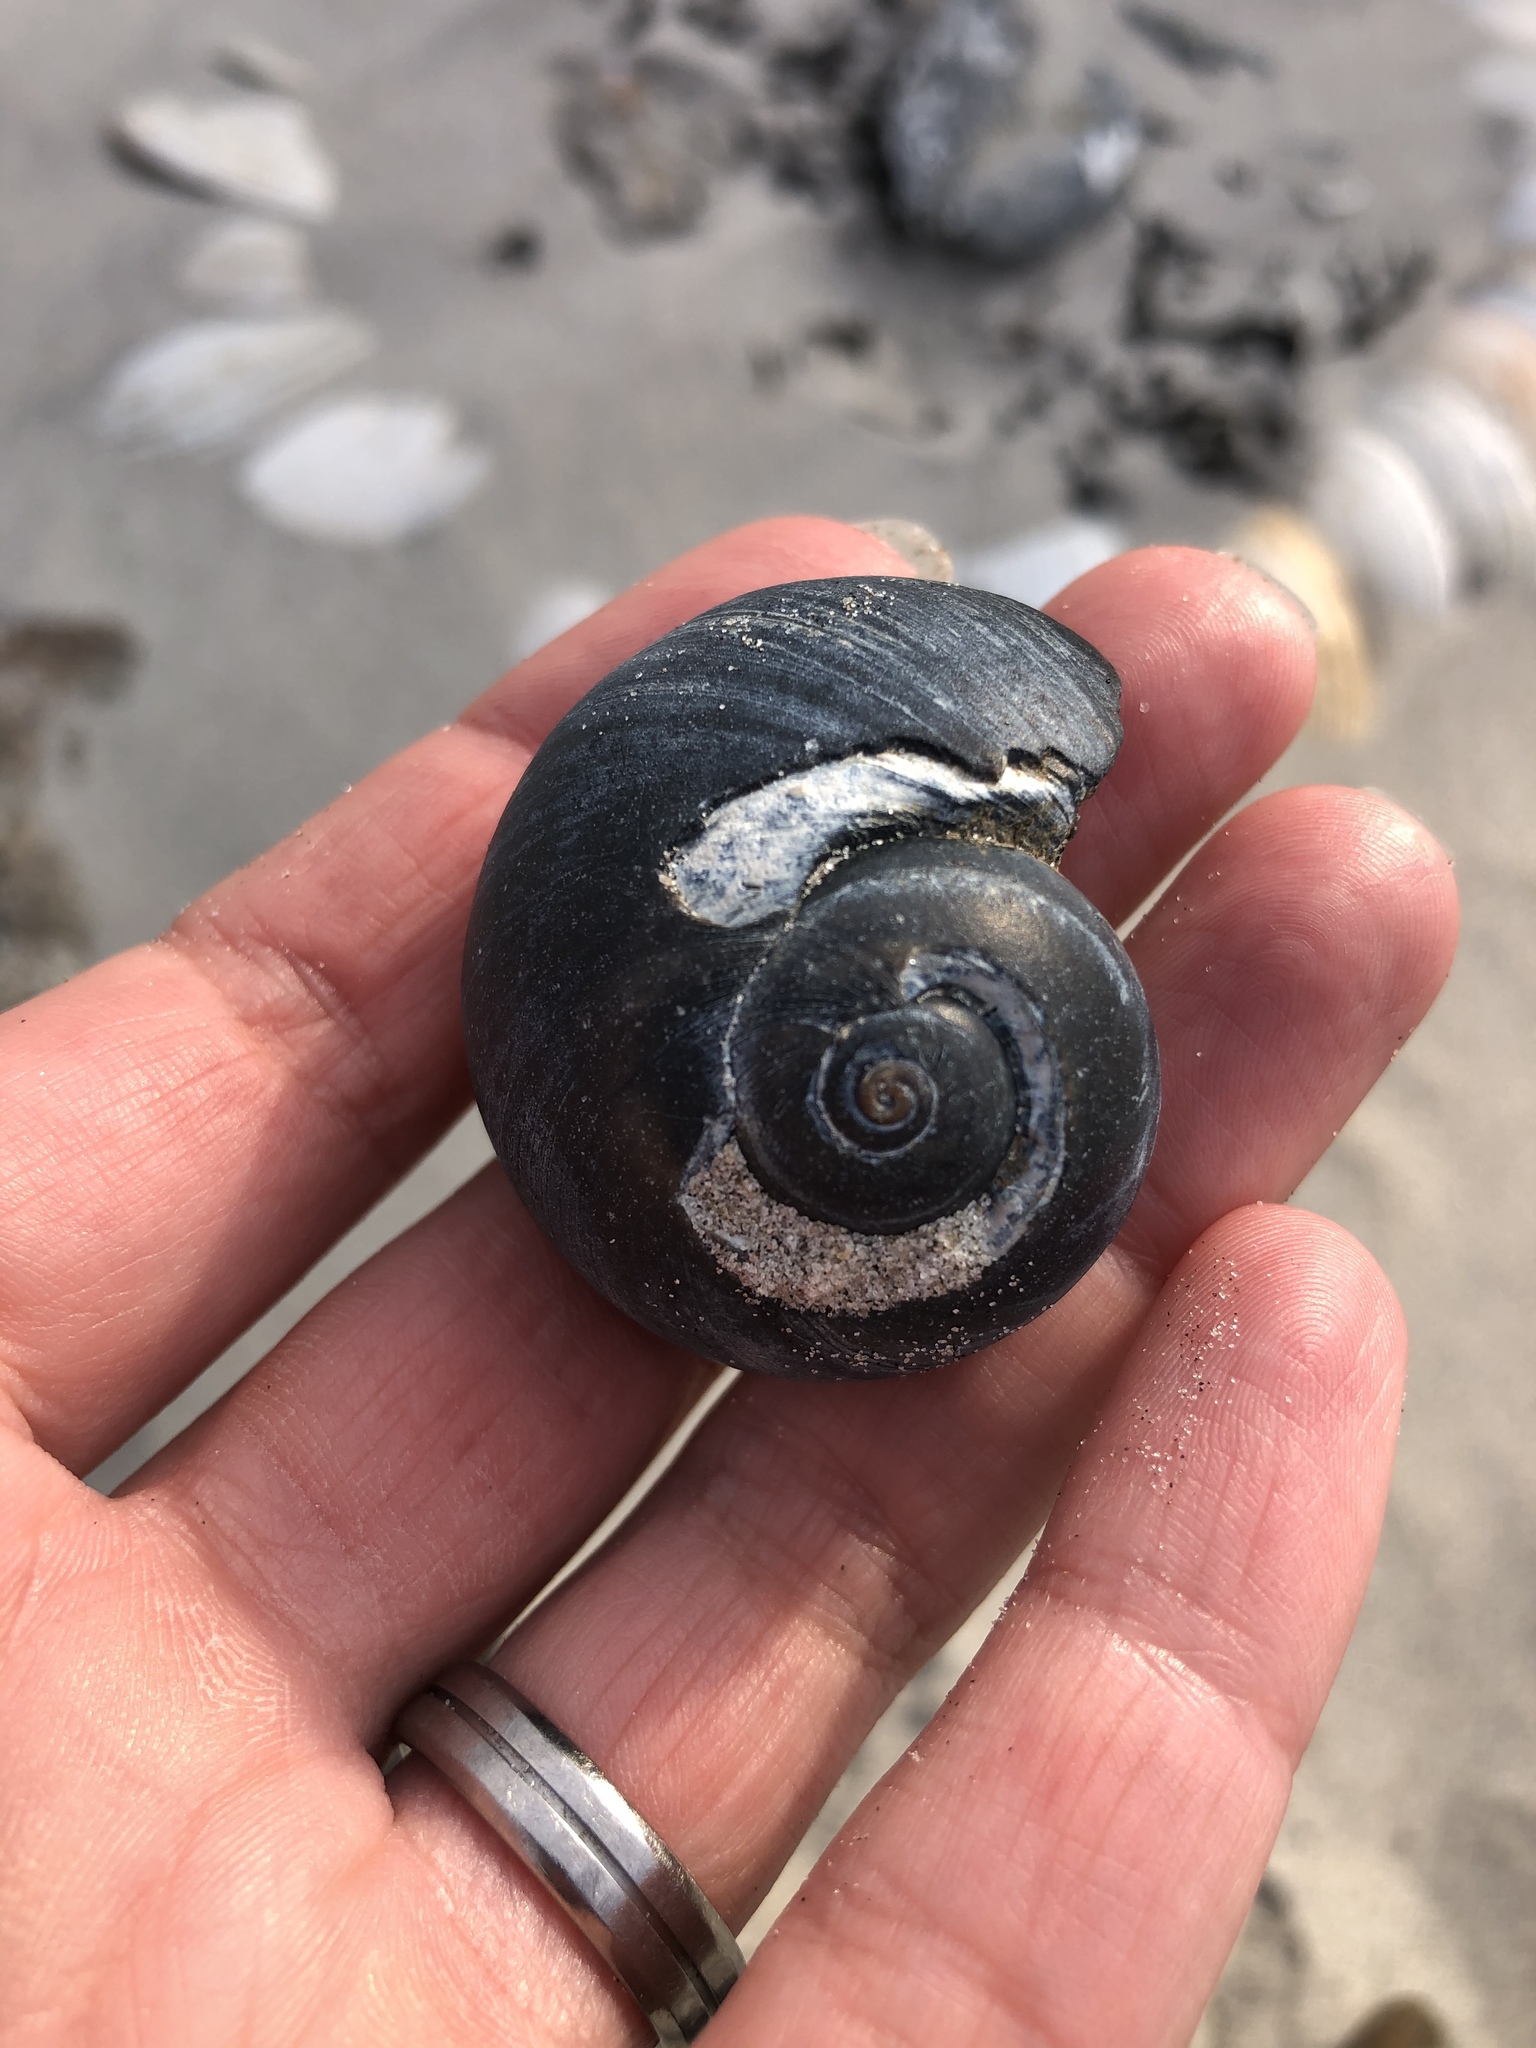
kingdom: Animalia
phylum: Mollusca
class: Gastropoda
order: Littorinimorpha
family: Naticidae
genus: Neverita
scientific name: Neverita duplicata
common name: Lobed moonsnail
